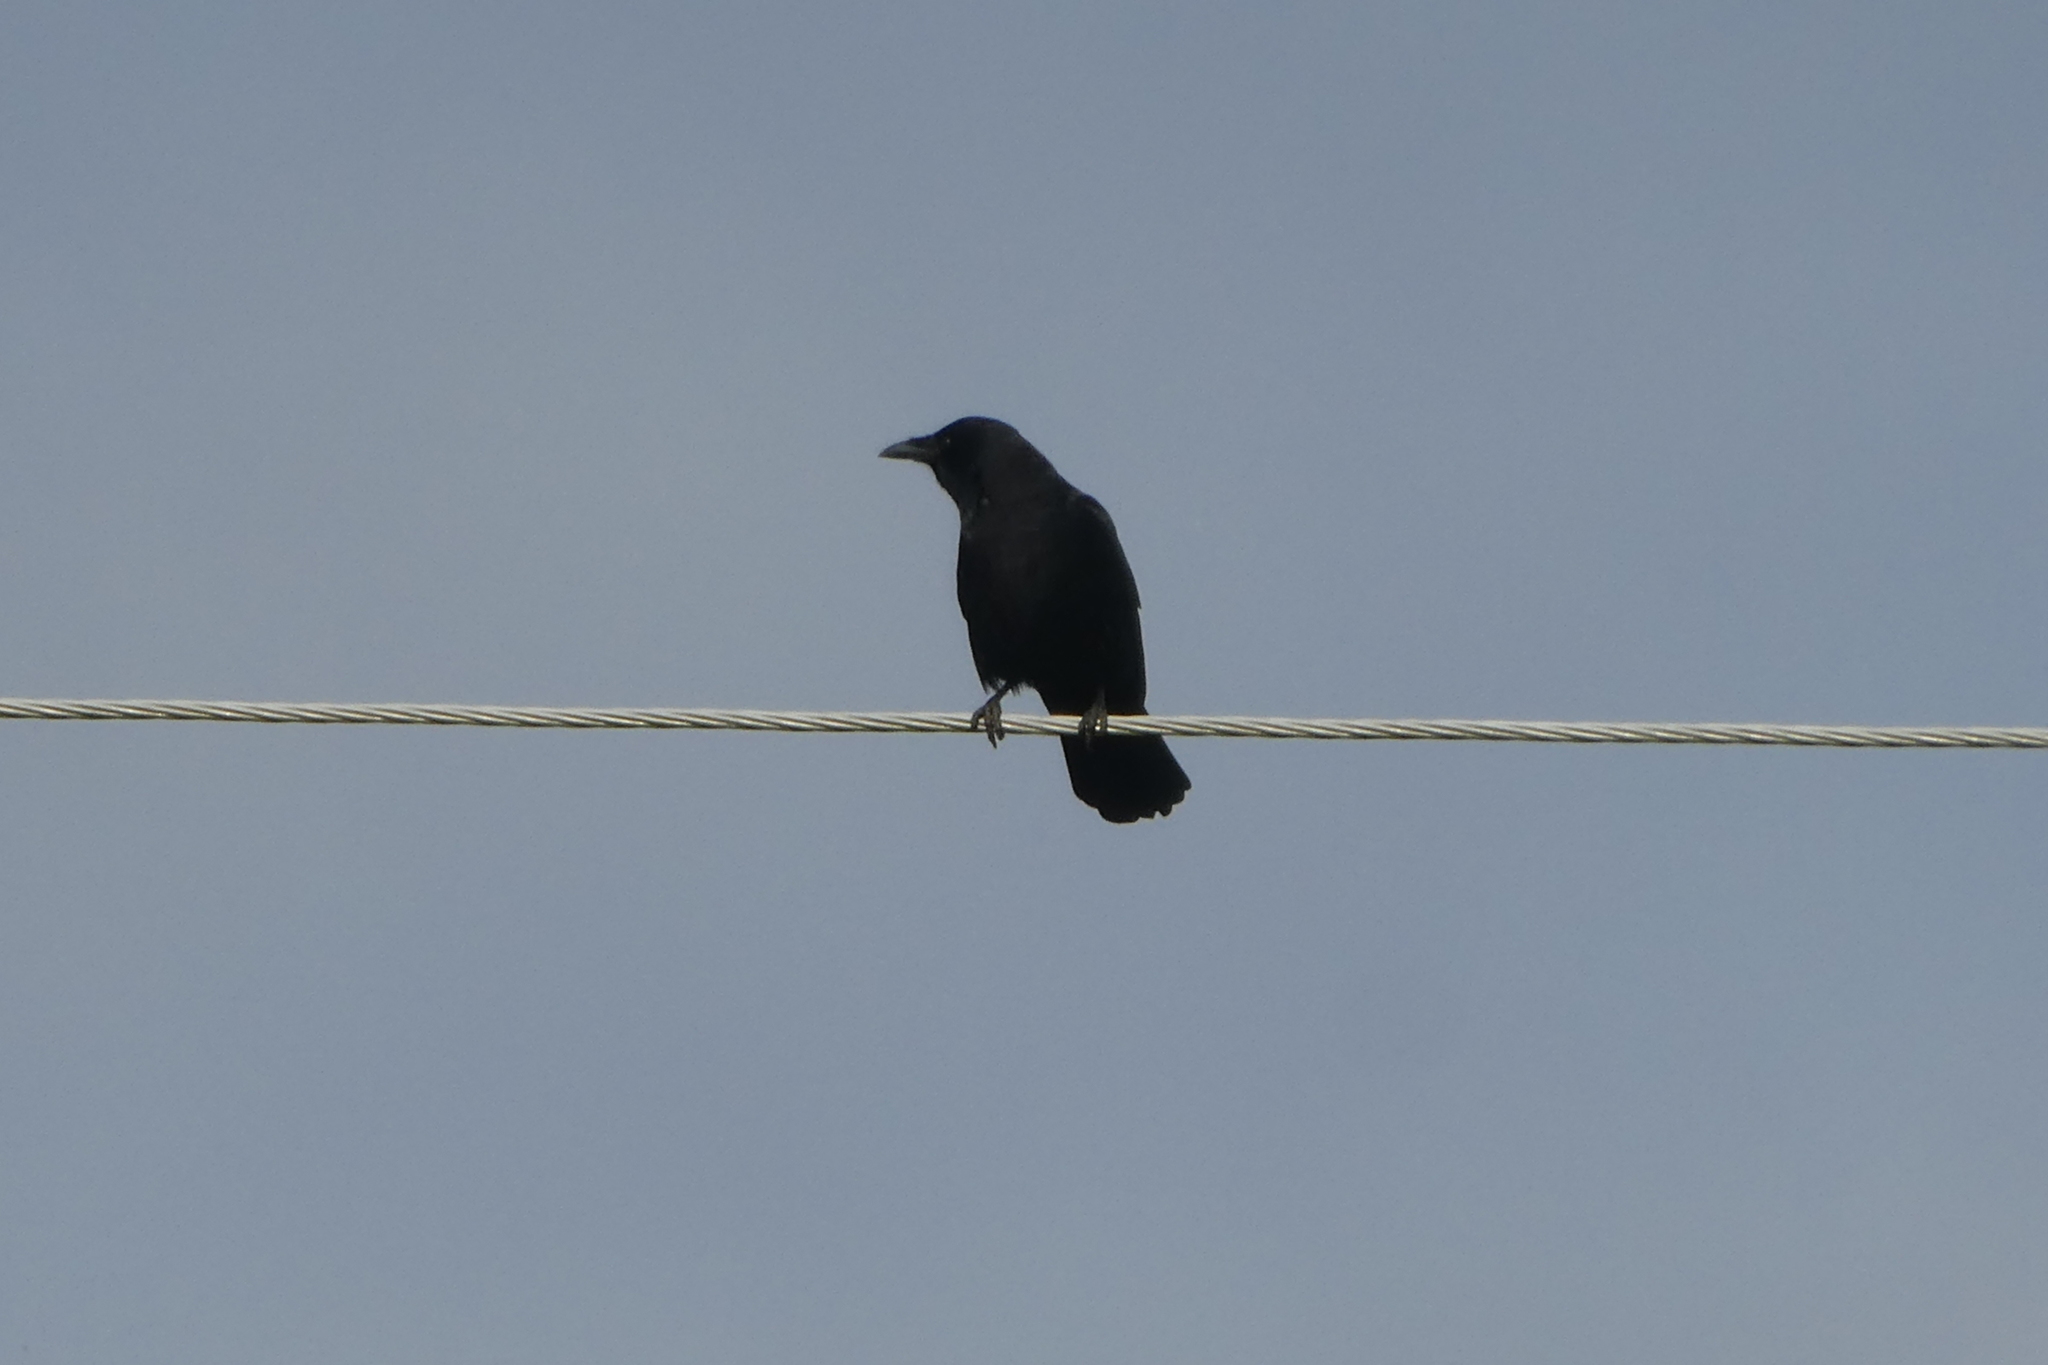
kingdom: Animalia
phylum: Chordata
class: Aves
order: Passeriformes
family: Corvidae
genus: Corvus
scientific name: Corvus brachyrhynchos
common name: American crow
